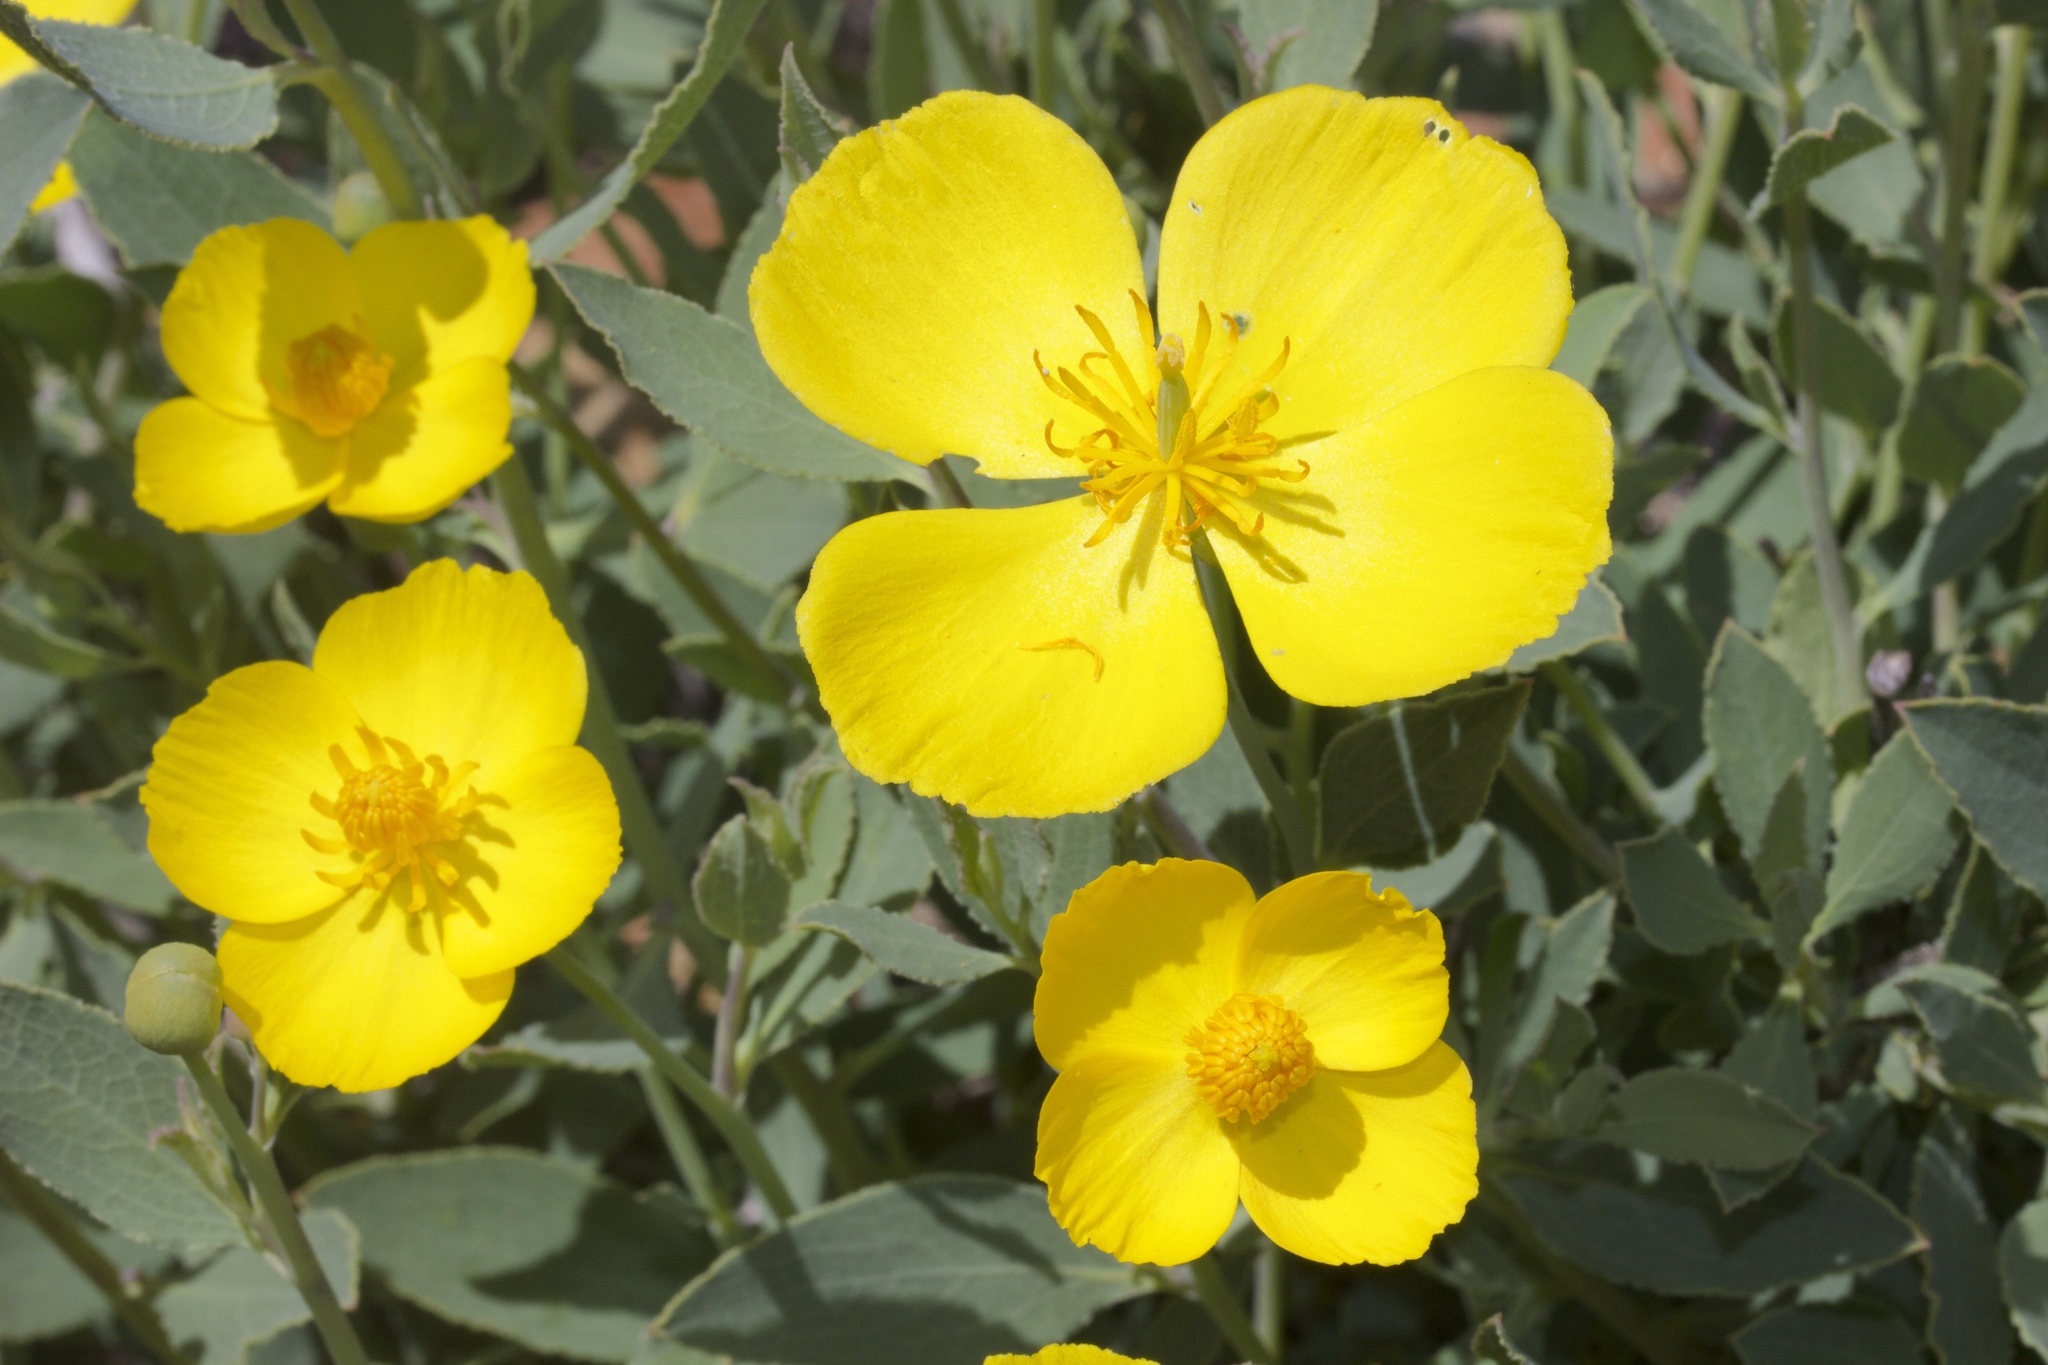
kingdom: Plantae
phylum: Tracheophyta
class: Magnoliopsida
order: Ranunculales
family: Papaveraceae
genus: Dendromecon
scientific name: Dendromecon rigida
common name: Tree poppy
